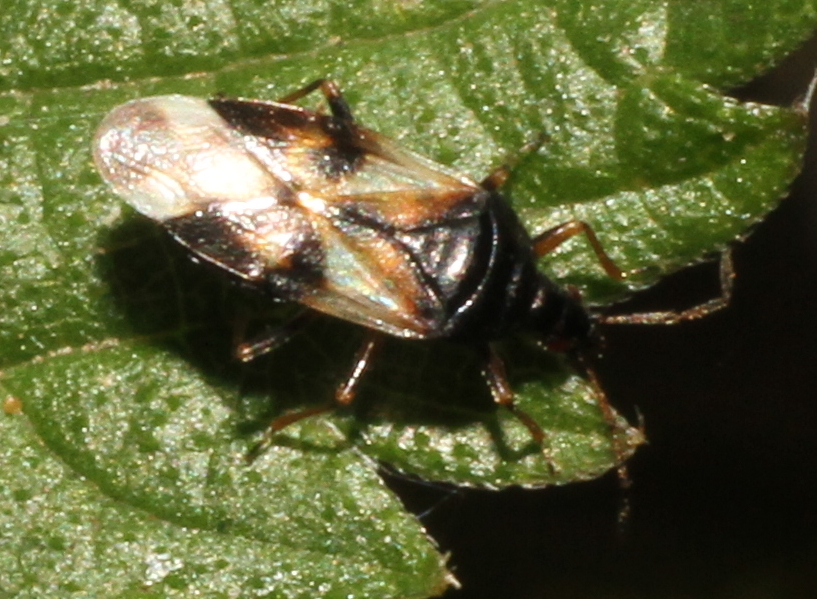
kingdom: Animalia
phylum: Arthropoda
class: Insecta
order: Hemiptera
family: Anthocoridae
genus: Anthocoris
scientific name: Anthocoris nemorum
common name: Minute pirate bug
